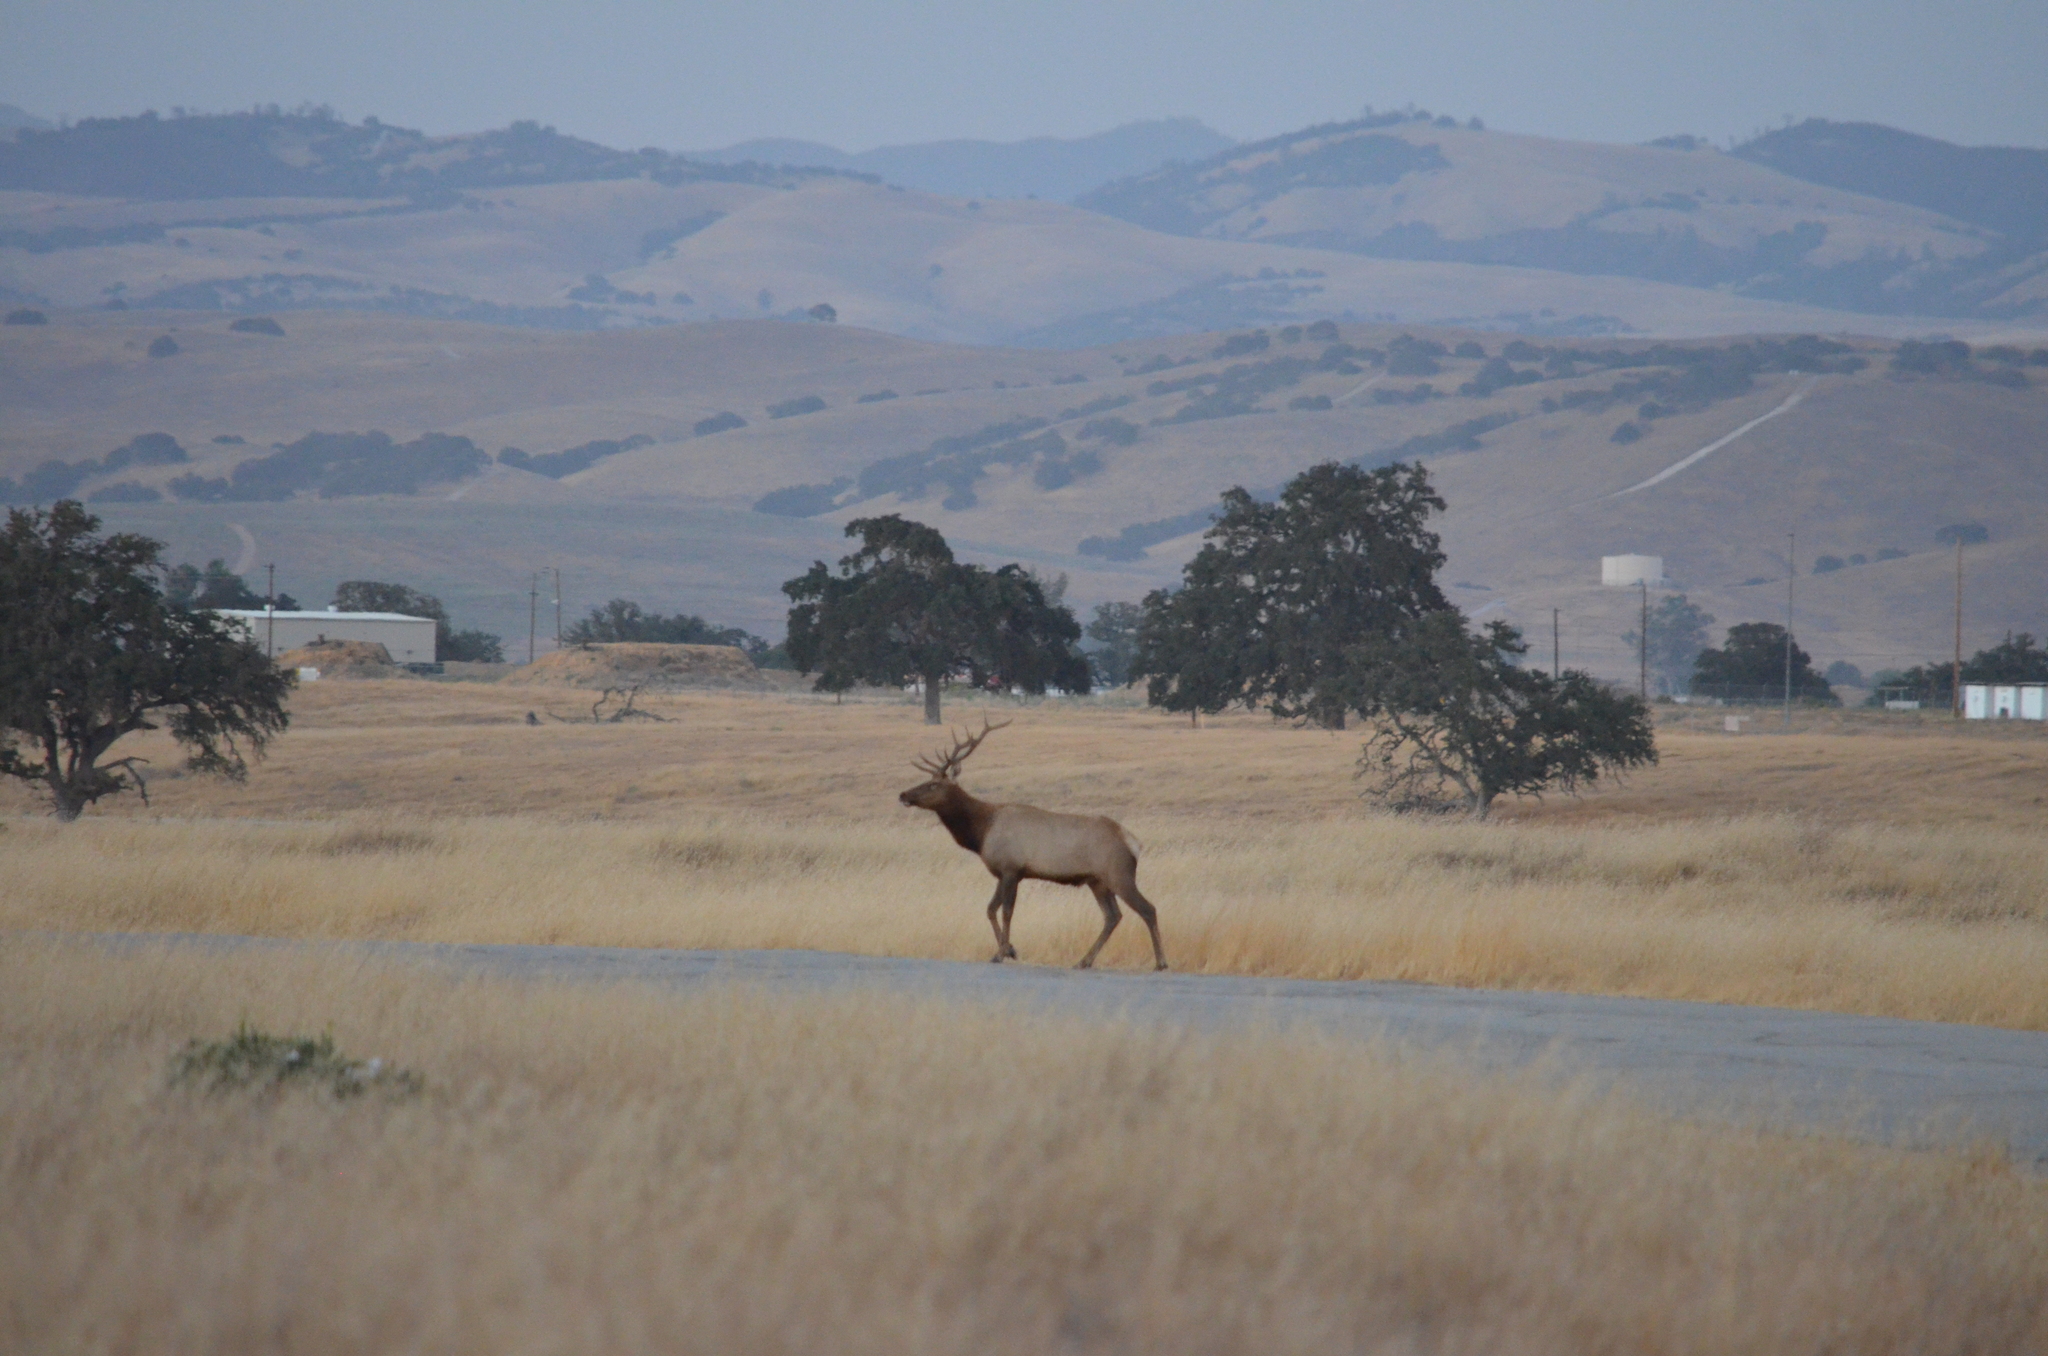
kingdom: Animalia
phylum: Chordata
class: Mammalia
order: Artiodactyla
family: Cervidae
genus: Cervus
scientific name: Cervus elaphus
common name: Red deer
